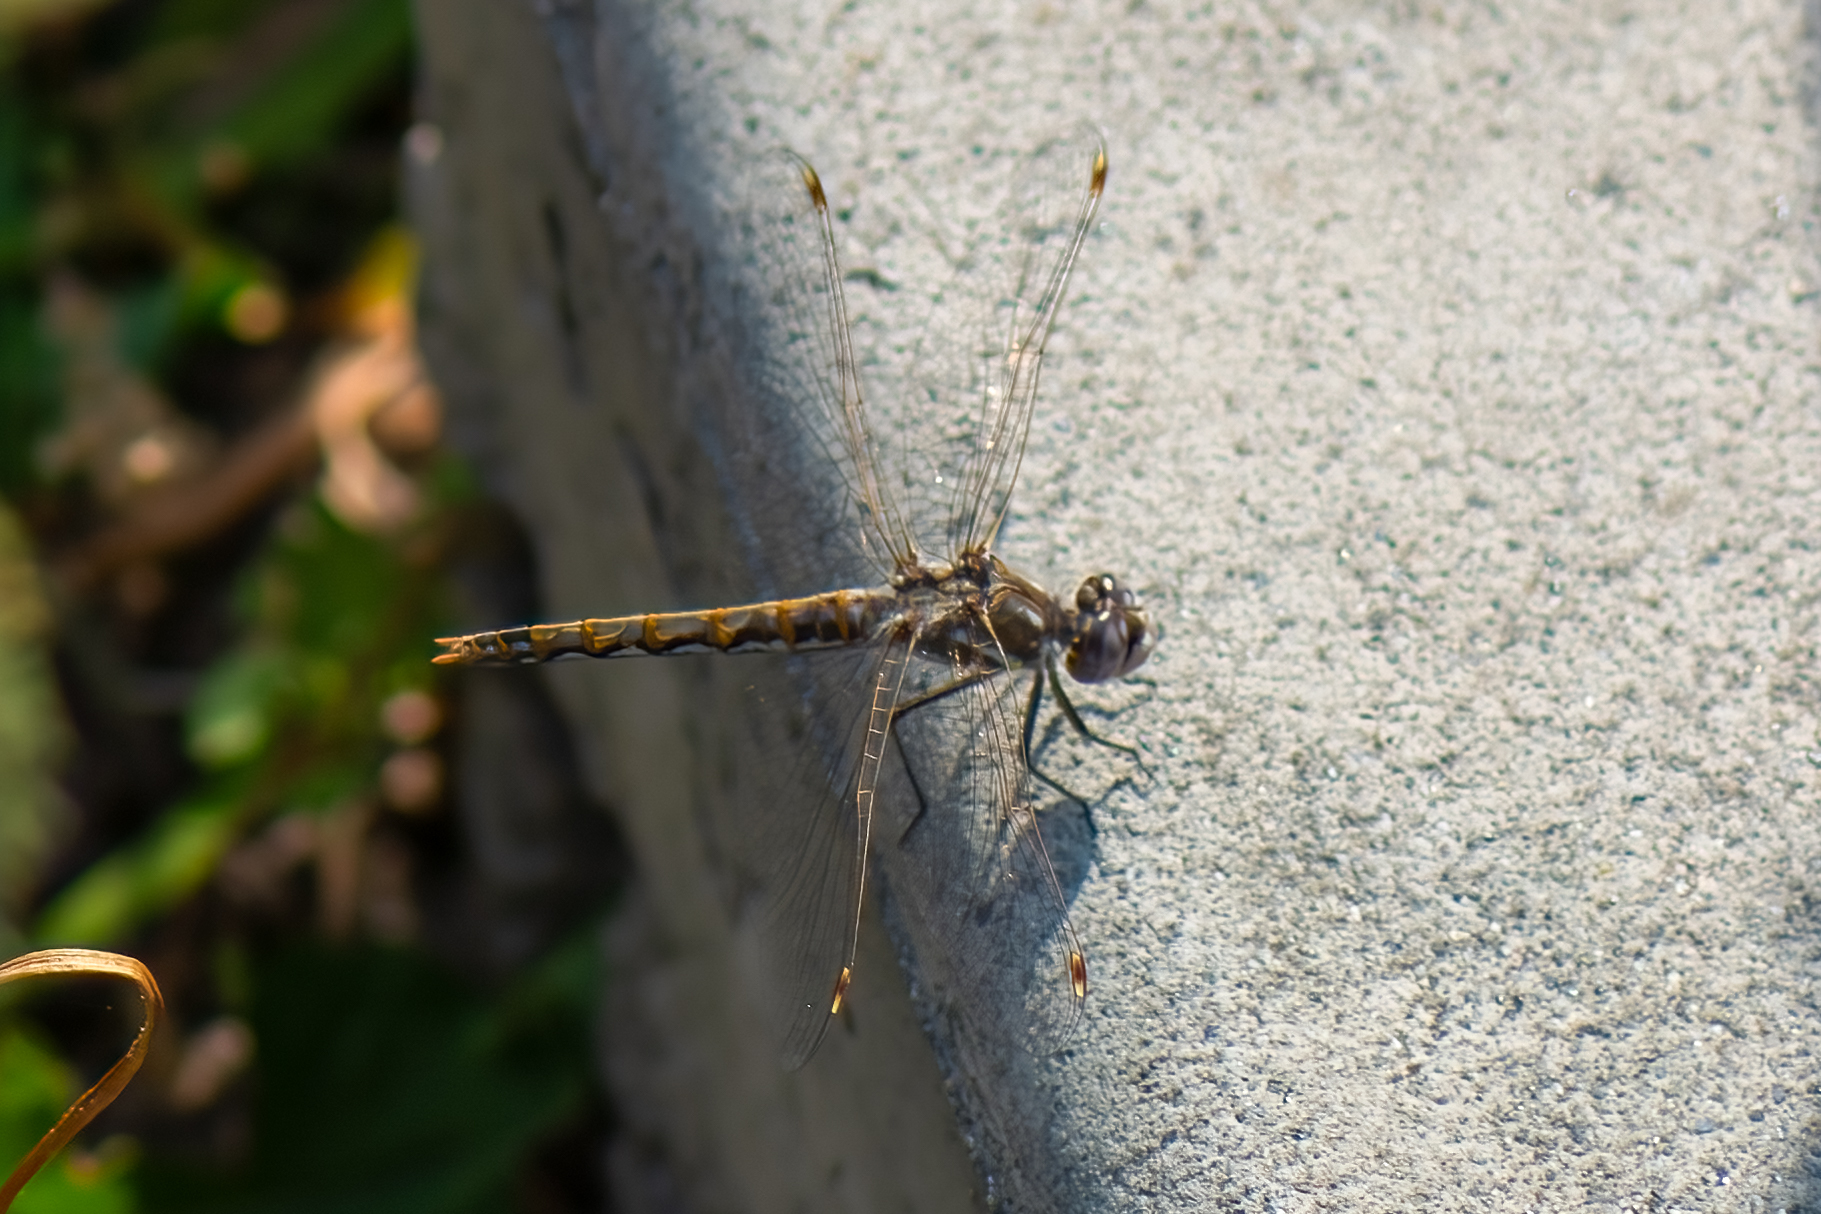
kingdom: Animalia
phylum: Arthropoda
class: Insecta
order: Odonata
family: Libellulidae
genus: Sympetrum
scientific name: Sympetrum corruptum
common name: Variegated meadowhawk
